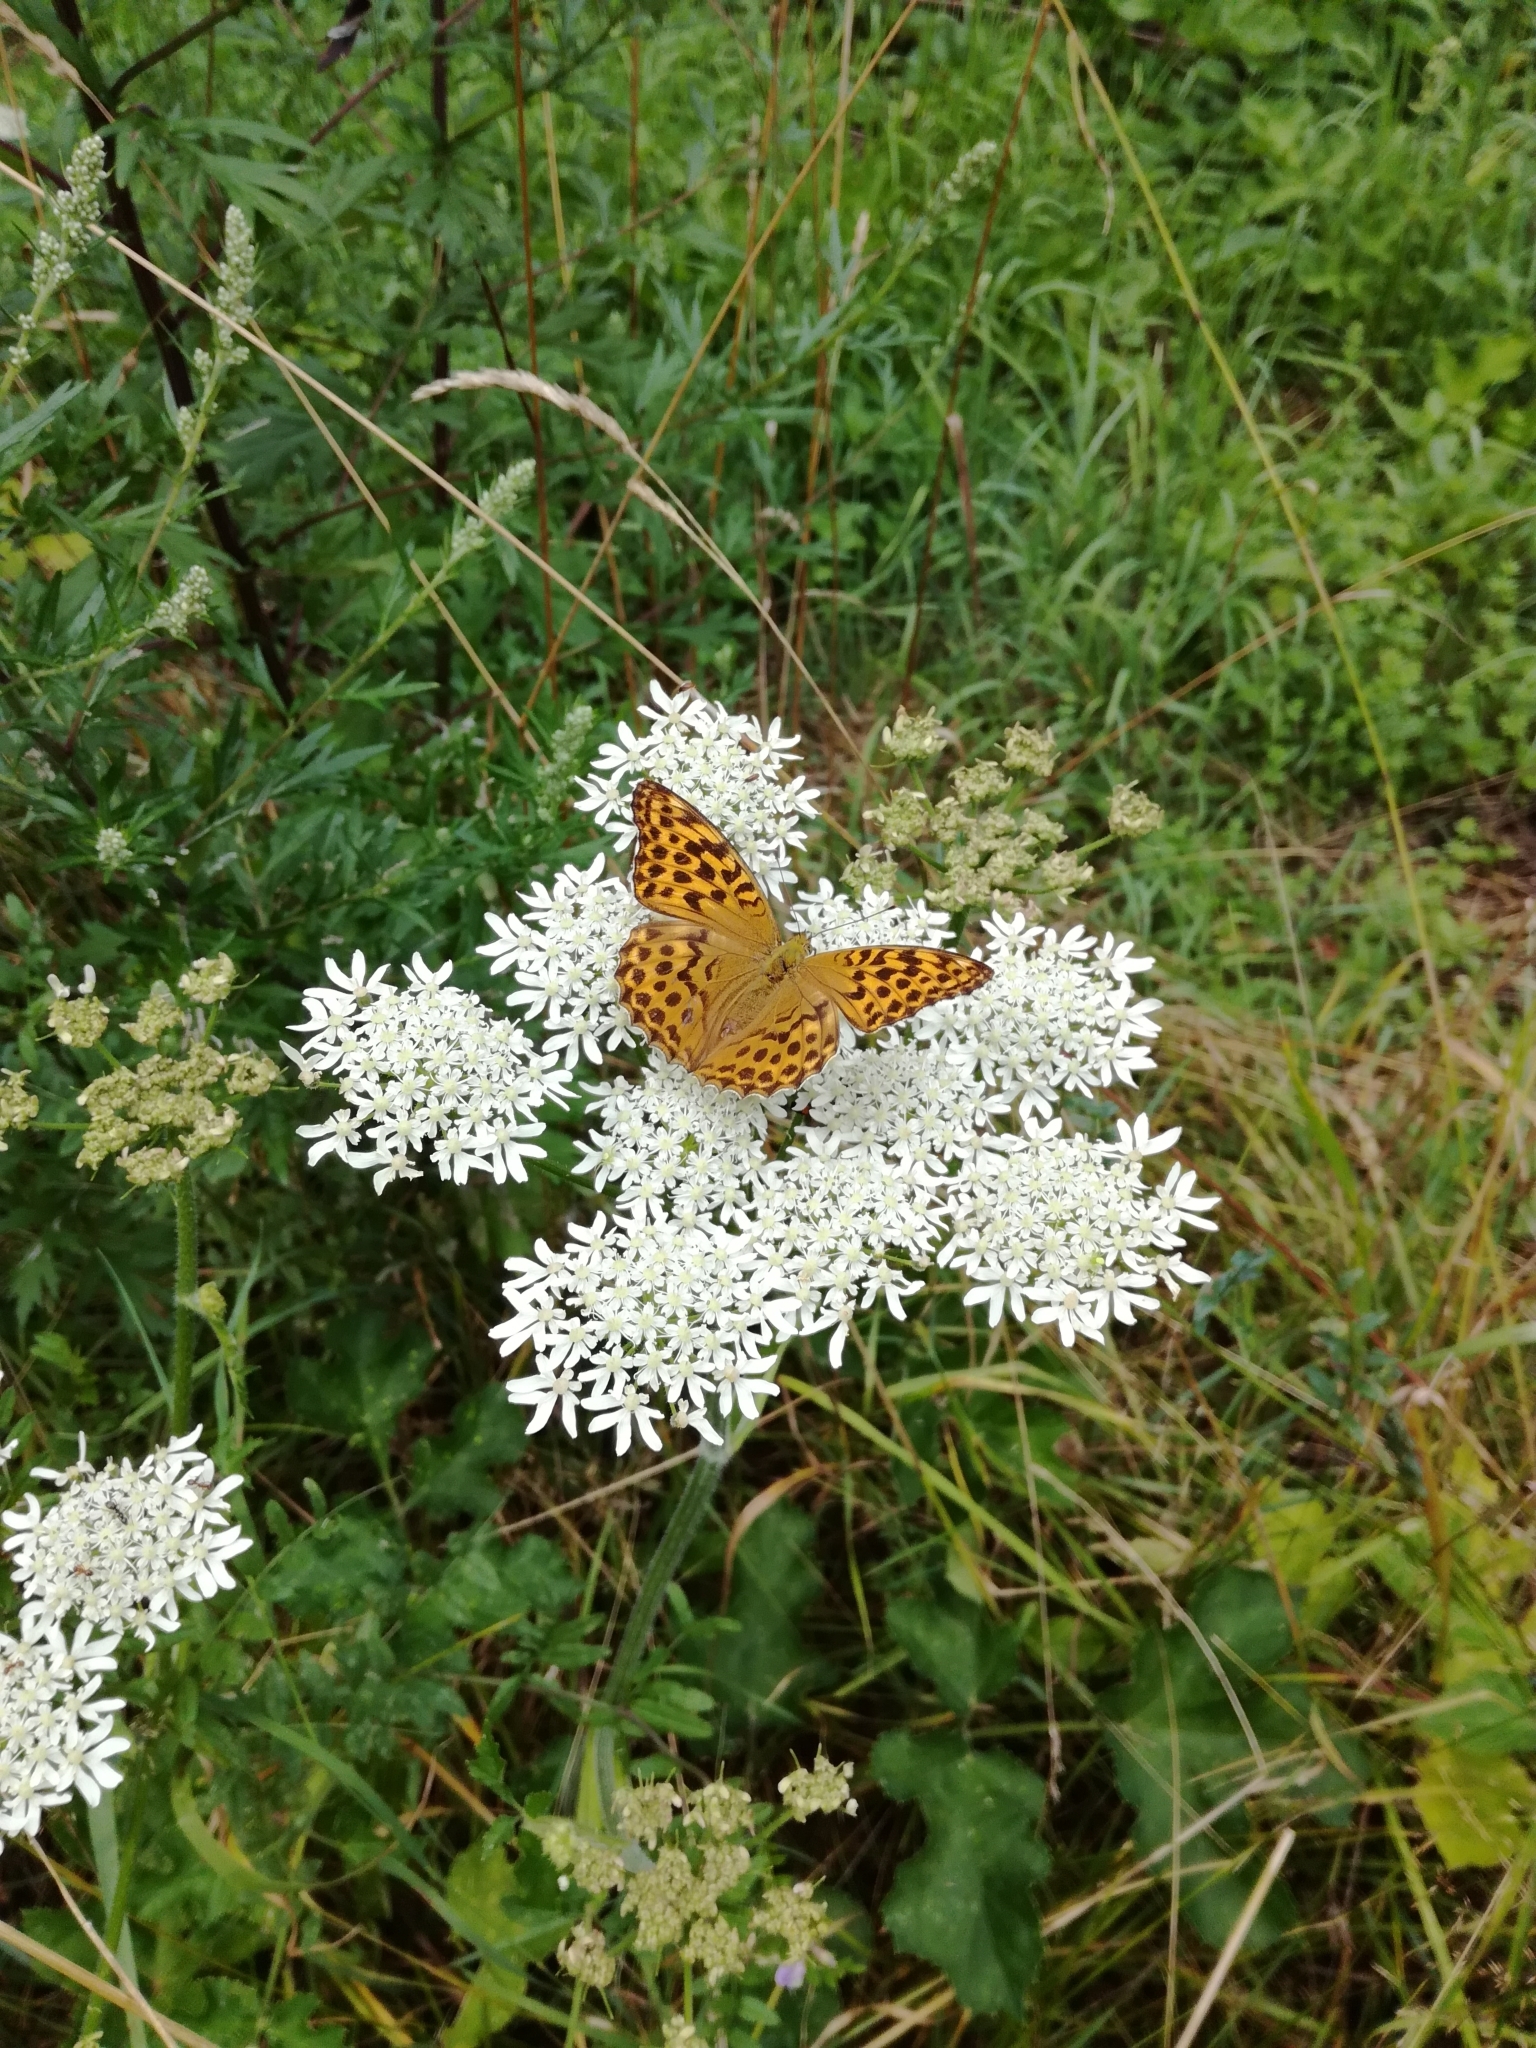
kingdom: Animalia
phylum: Arthropoda
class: Insecta
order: Lepidoptera
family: Nymphalidae
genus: Argynnis
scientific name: Argynnis paphia
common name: Silver-washed fritillary
